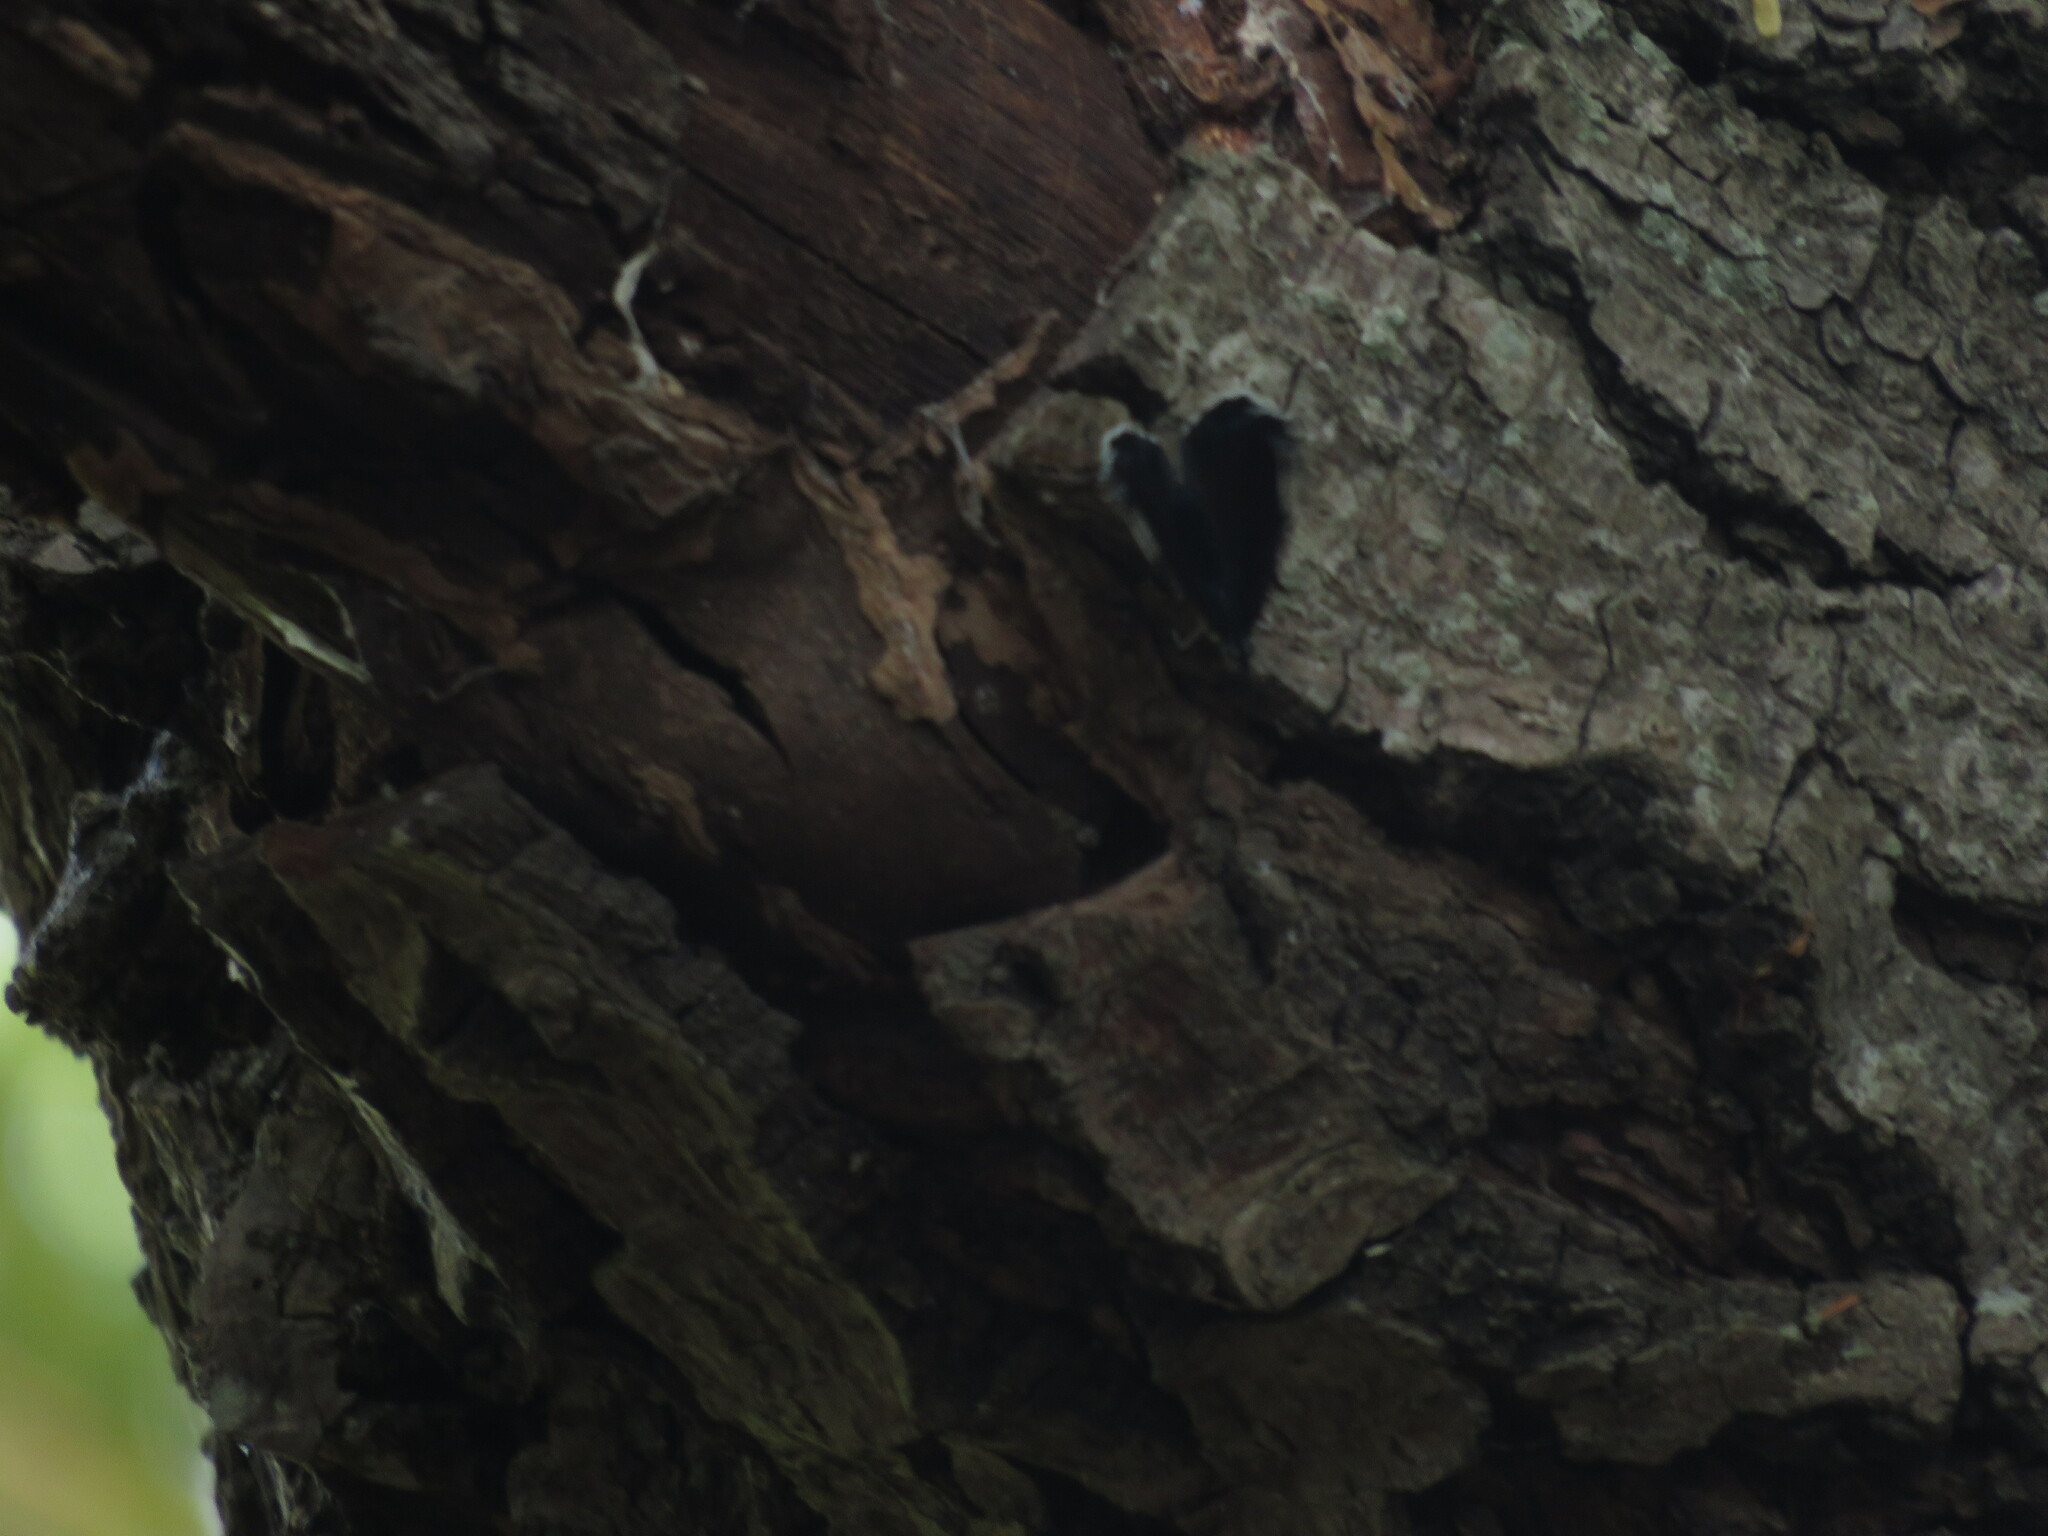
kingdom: Animalia
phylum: Arthropoda
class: Insecta
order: Lepidoptera
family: Nymphalidae
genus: Diaethria
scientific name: Diaethria candrena
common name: Number eighty
